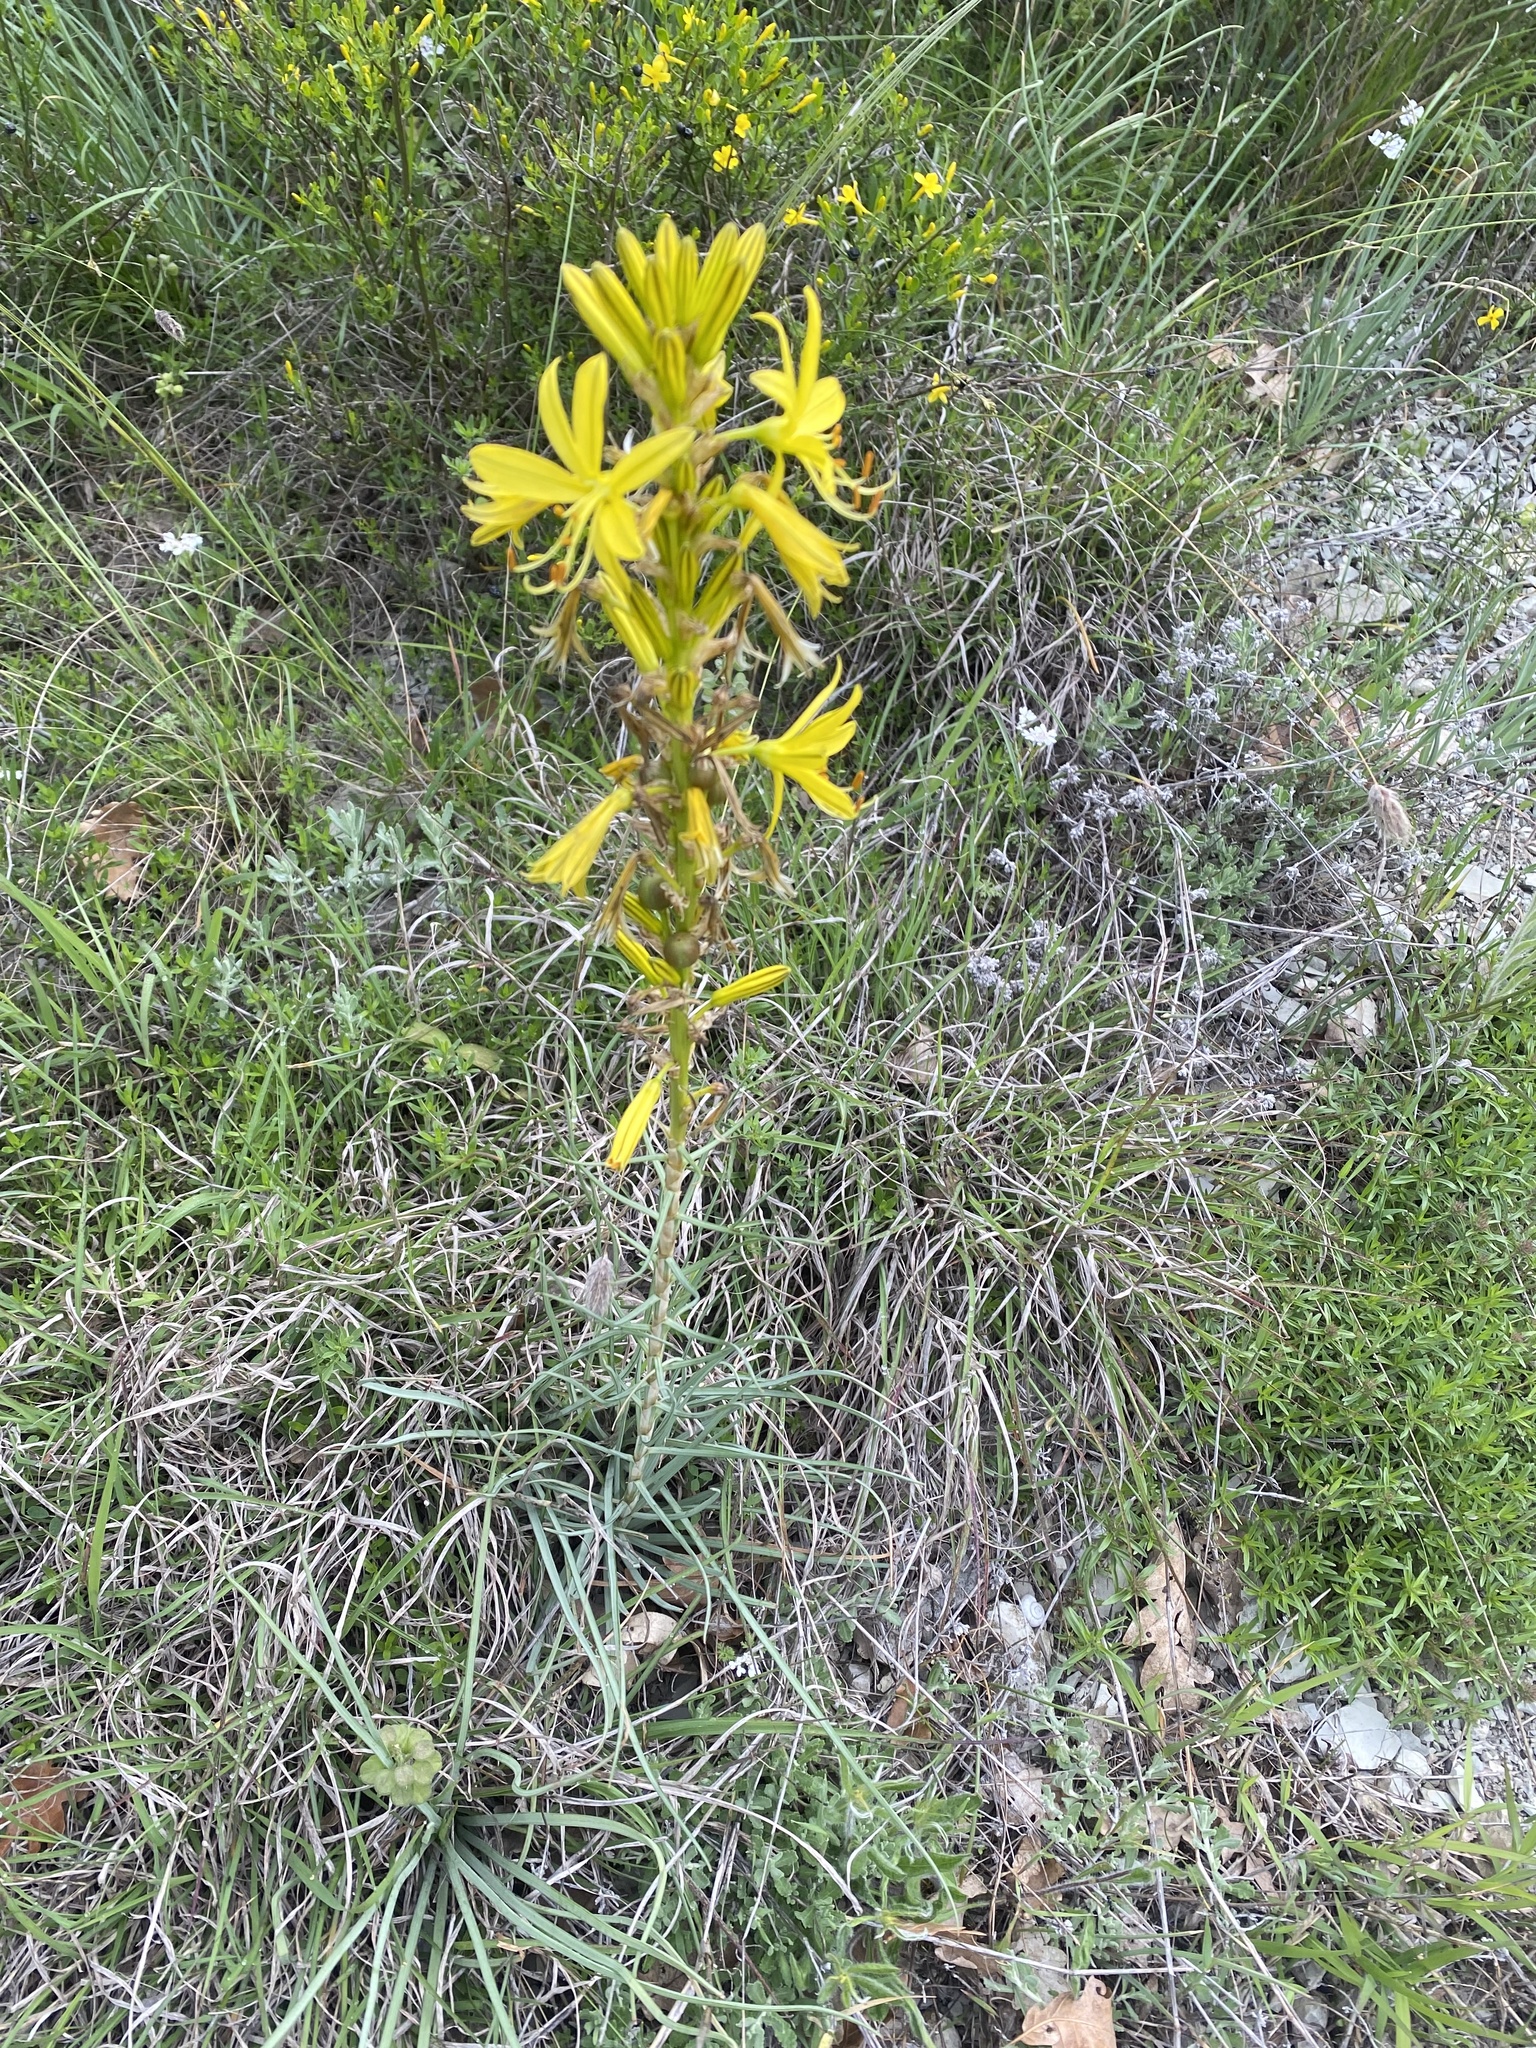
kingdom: Plantae
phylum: Tracheophyta
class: Liliopsida
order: Asparagales
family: Asphodelaceae
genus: Asphodeline
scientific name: Asphodeline lutea
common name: Yellow asphodel
